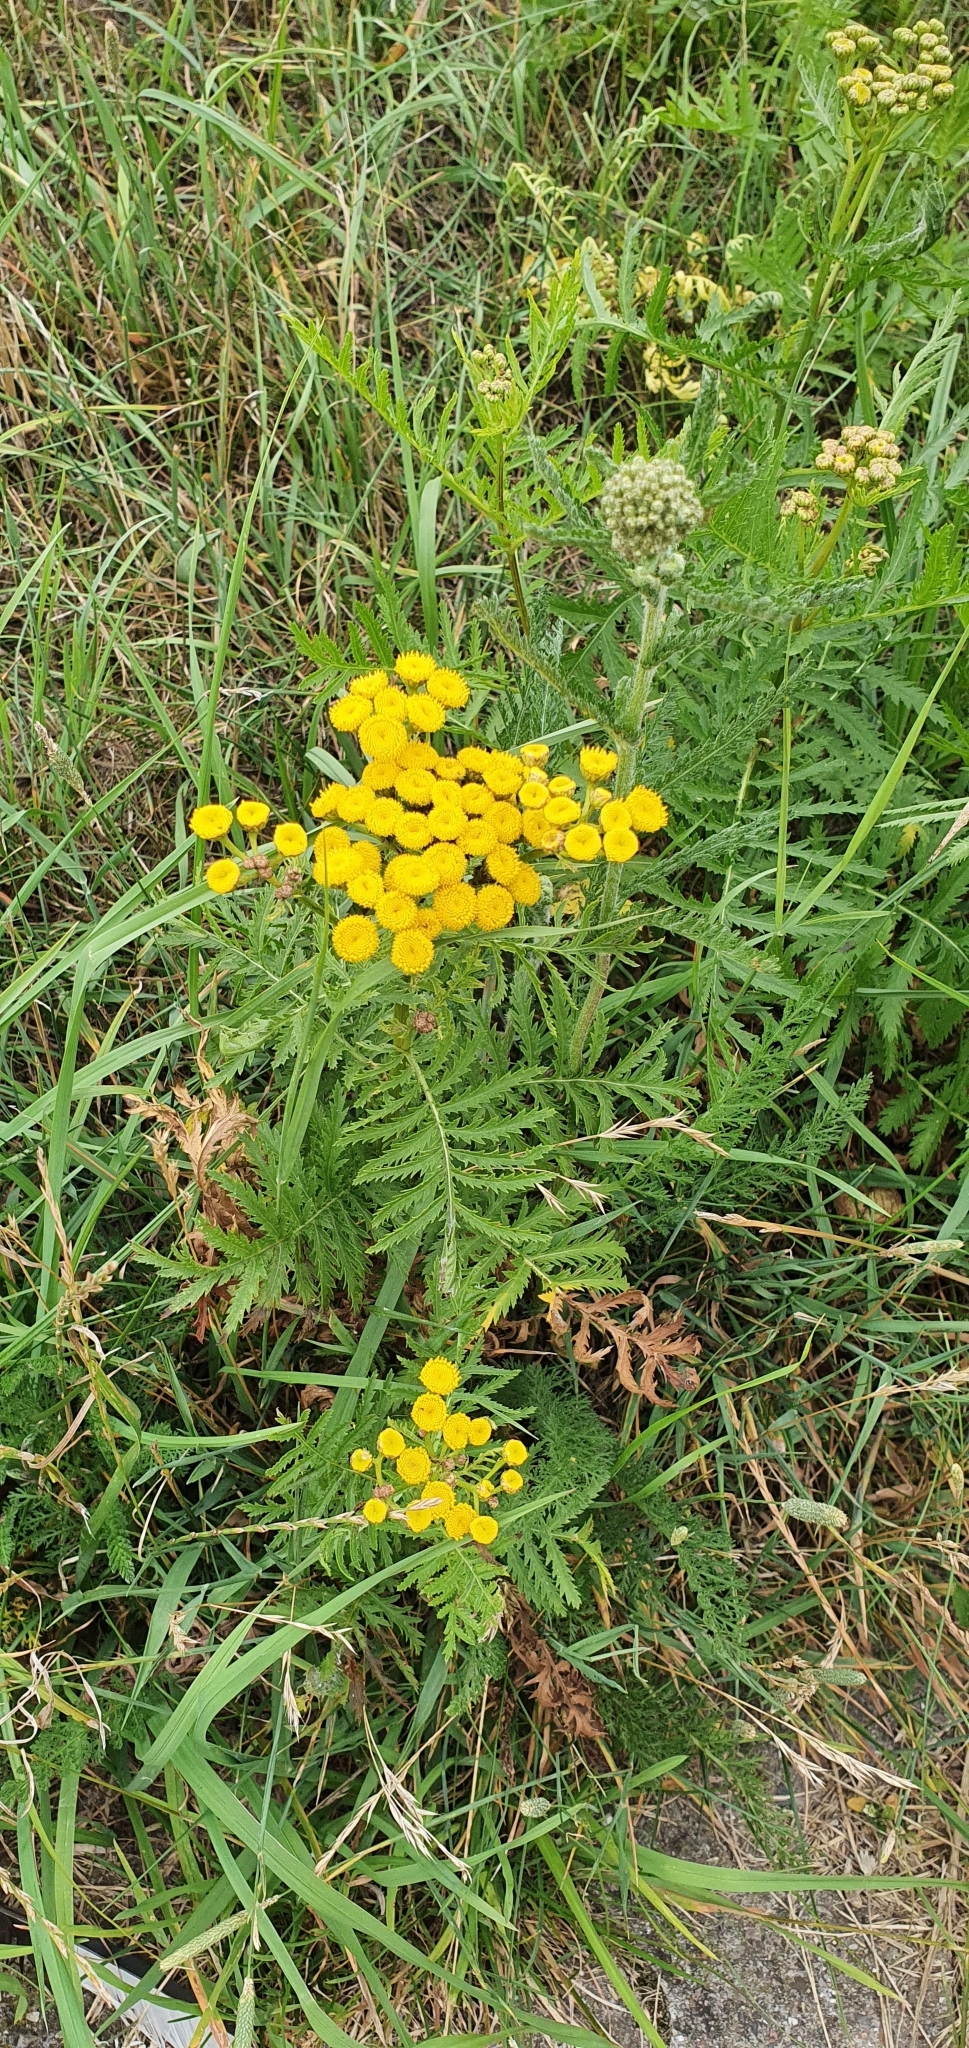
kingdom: Plantae
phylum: Tracheophyta
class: Magnoliopsida
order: Asterales
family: Asteraceae
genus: Tanacetum
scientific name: Tanacetum vulgare
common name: Common tansy
